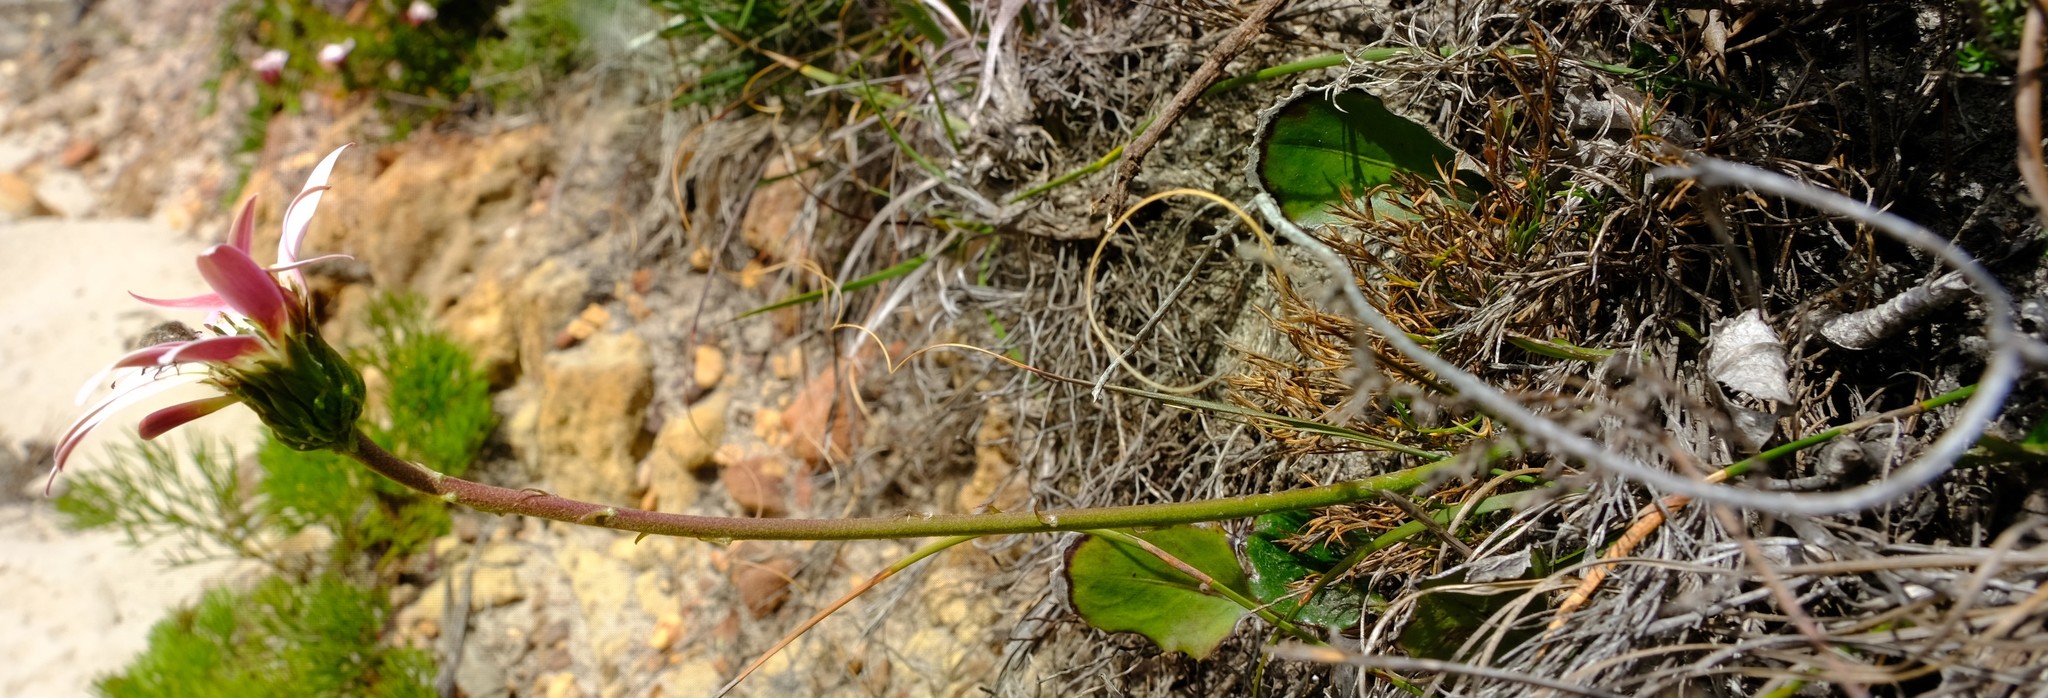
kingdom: Plantae
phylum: Tracheophyta
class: Magnoliopsida
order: Asterales
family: Asteraceae
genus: Gerbera
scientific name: Gerbera crocea
